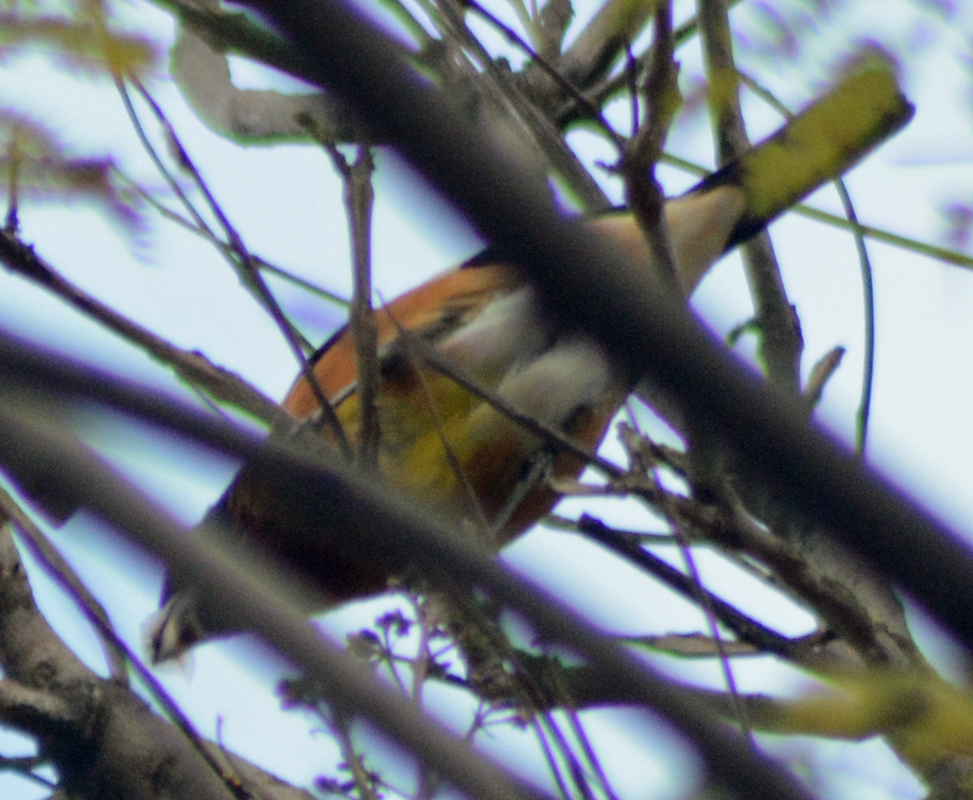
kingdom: Animalia
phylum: Chordata
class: Aves
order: Passeriformes
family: Cardinalidae
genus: Pheucticus
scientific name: Pheucticus melanocephalus
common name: Black-headed grosbeak
